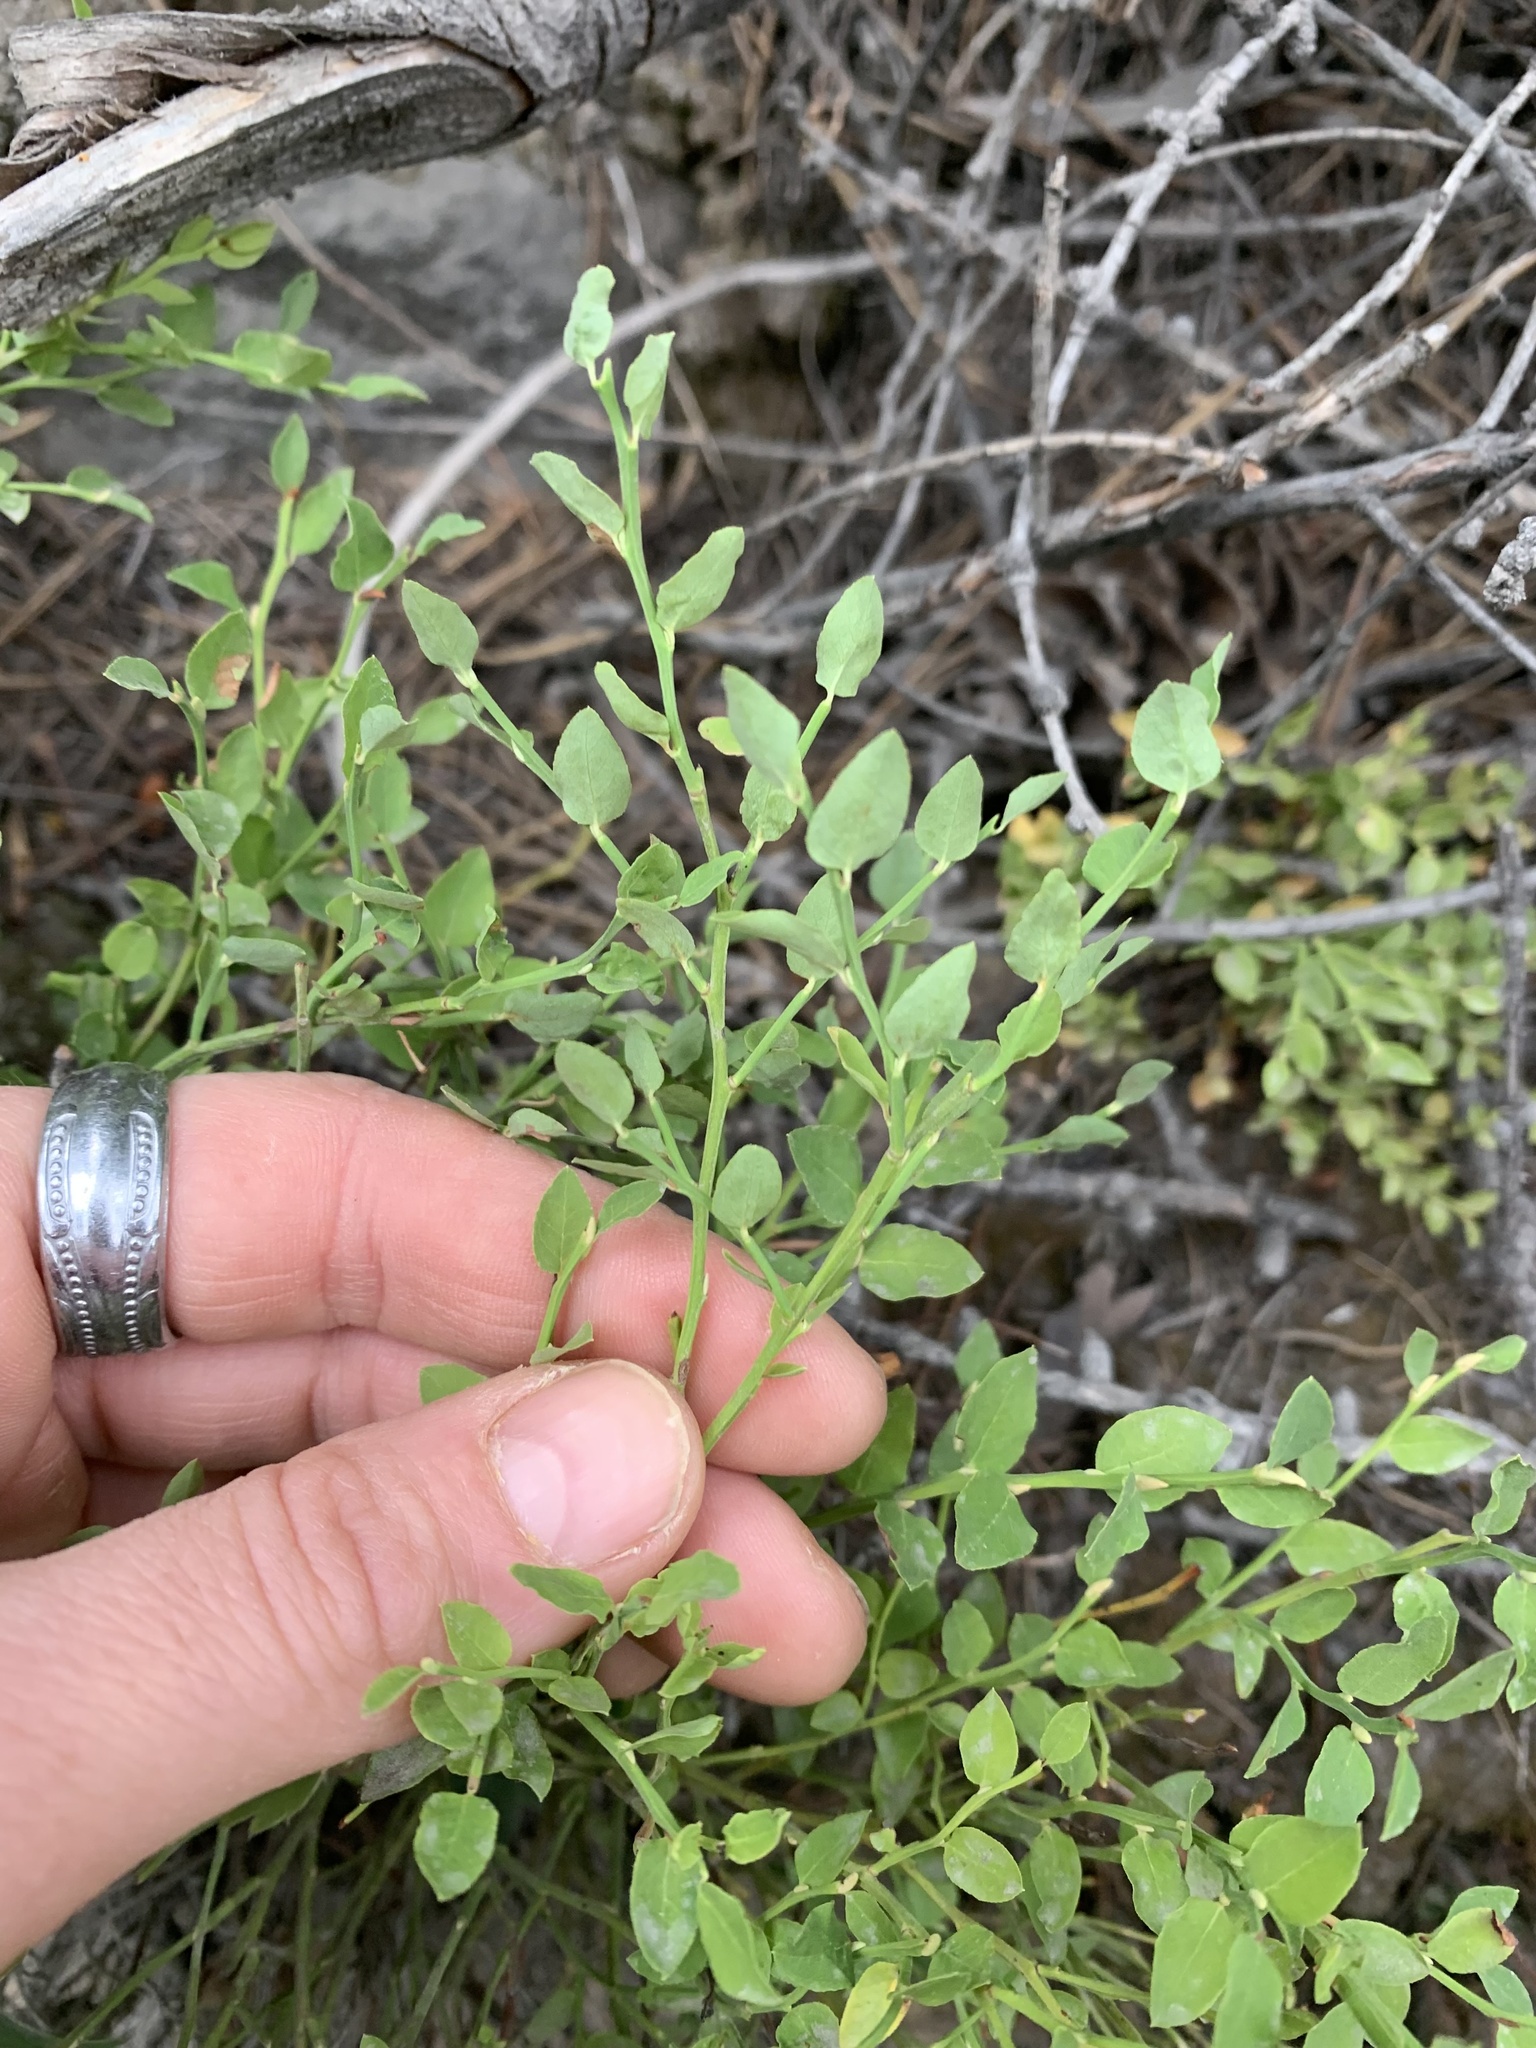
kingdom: Plantae
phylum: Tracheophyta
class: Magnoliopsida
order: Ericales
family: Ericaceae
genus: Vaccinium
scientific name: Vaccinium scoparium
